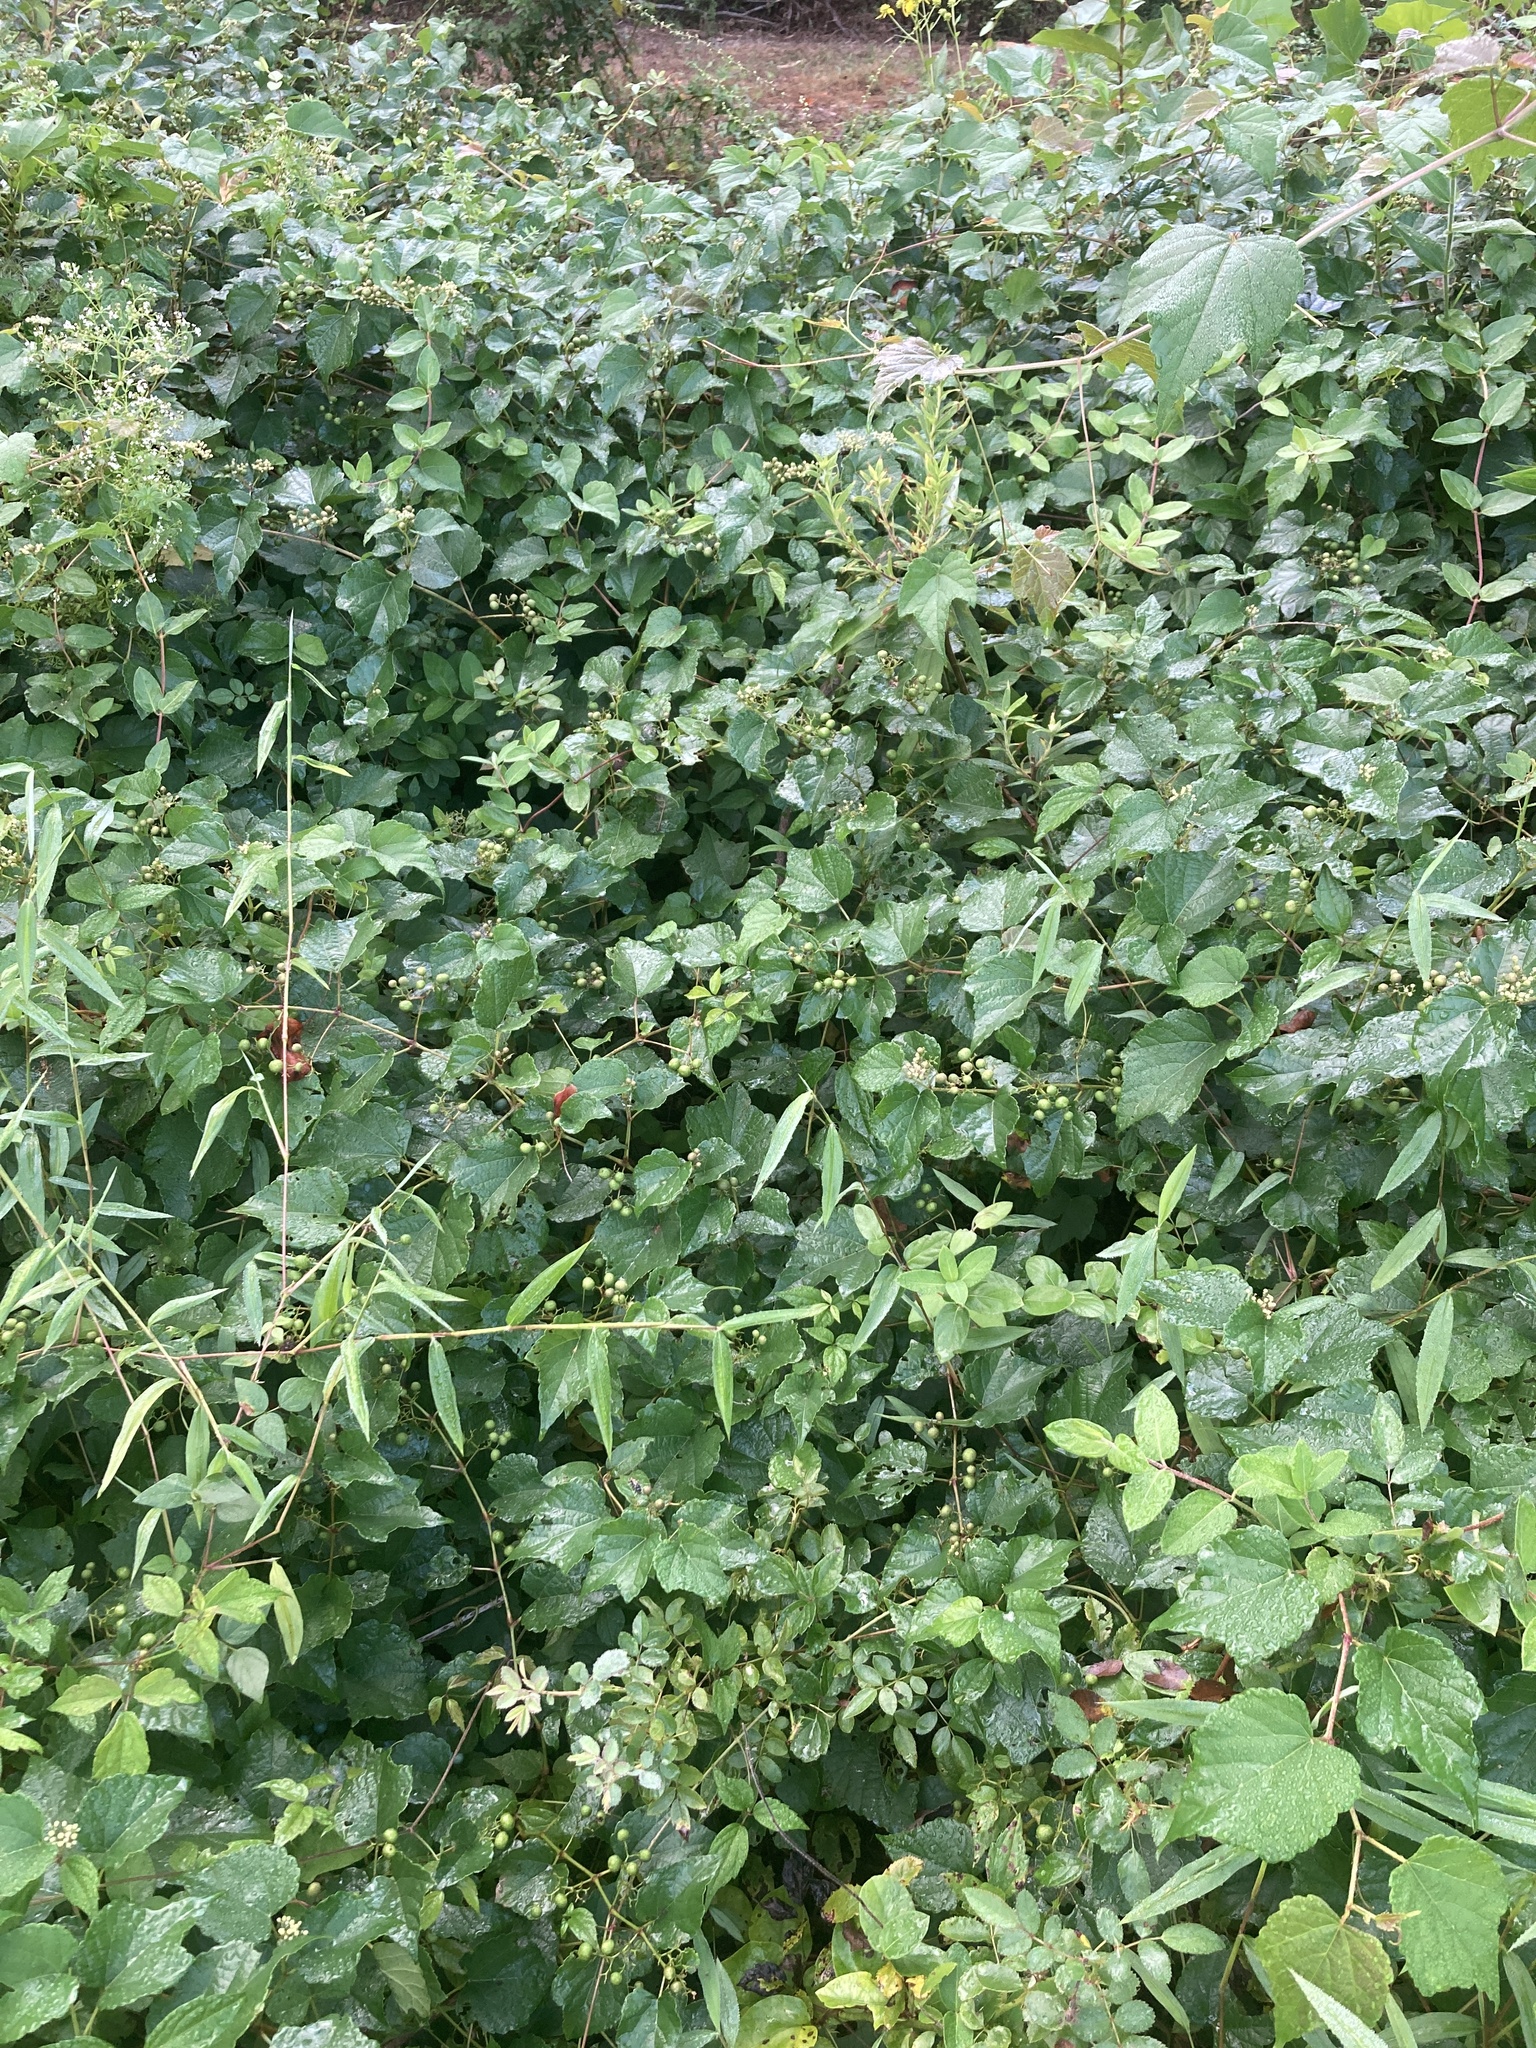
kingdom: Plantae
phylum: Tracheophyta
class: Magnoliopsida
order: Vitales
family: Vitaceae
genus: Ampelopsis
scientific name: Ampelopsis glandulosa
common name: Amur peppervine
